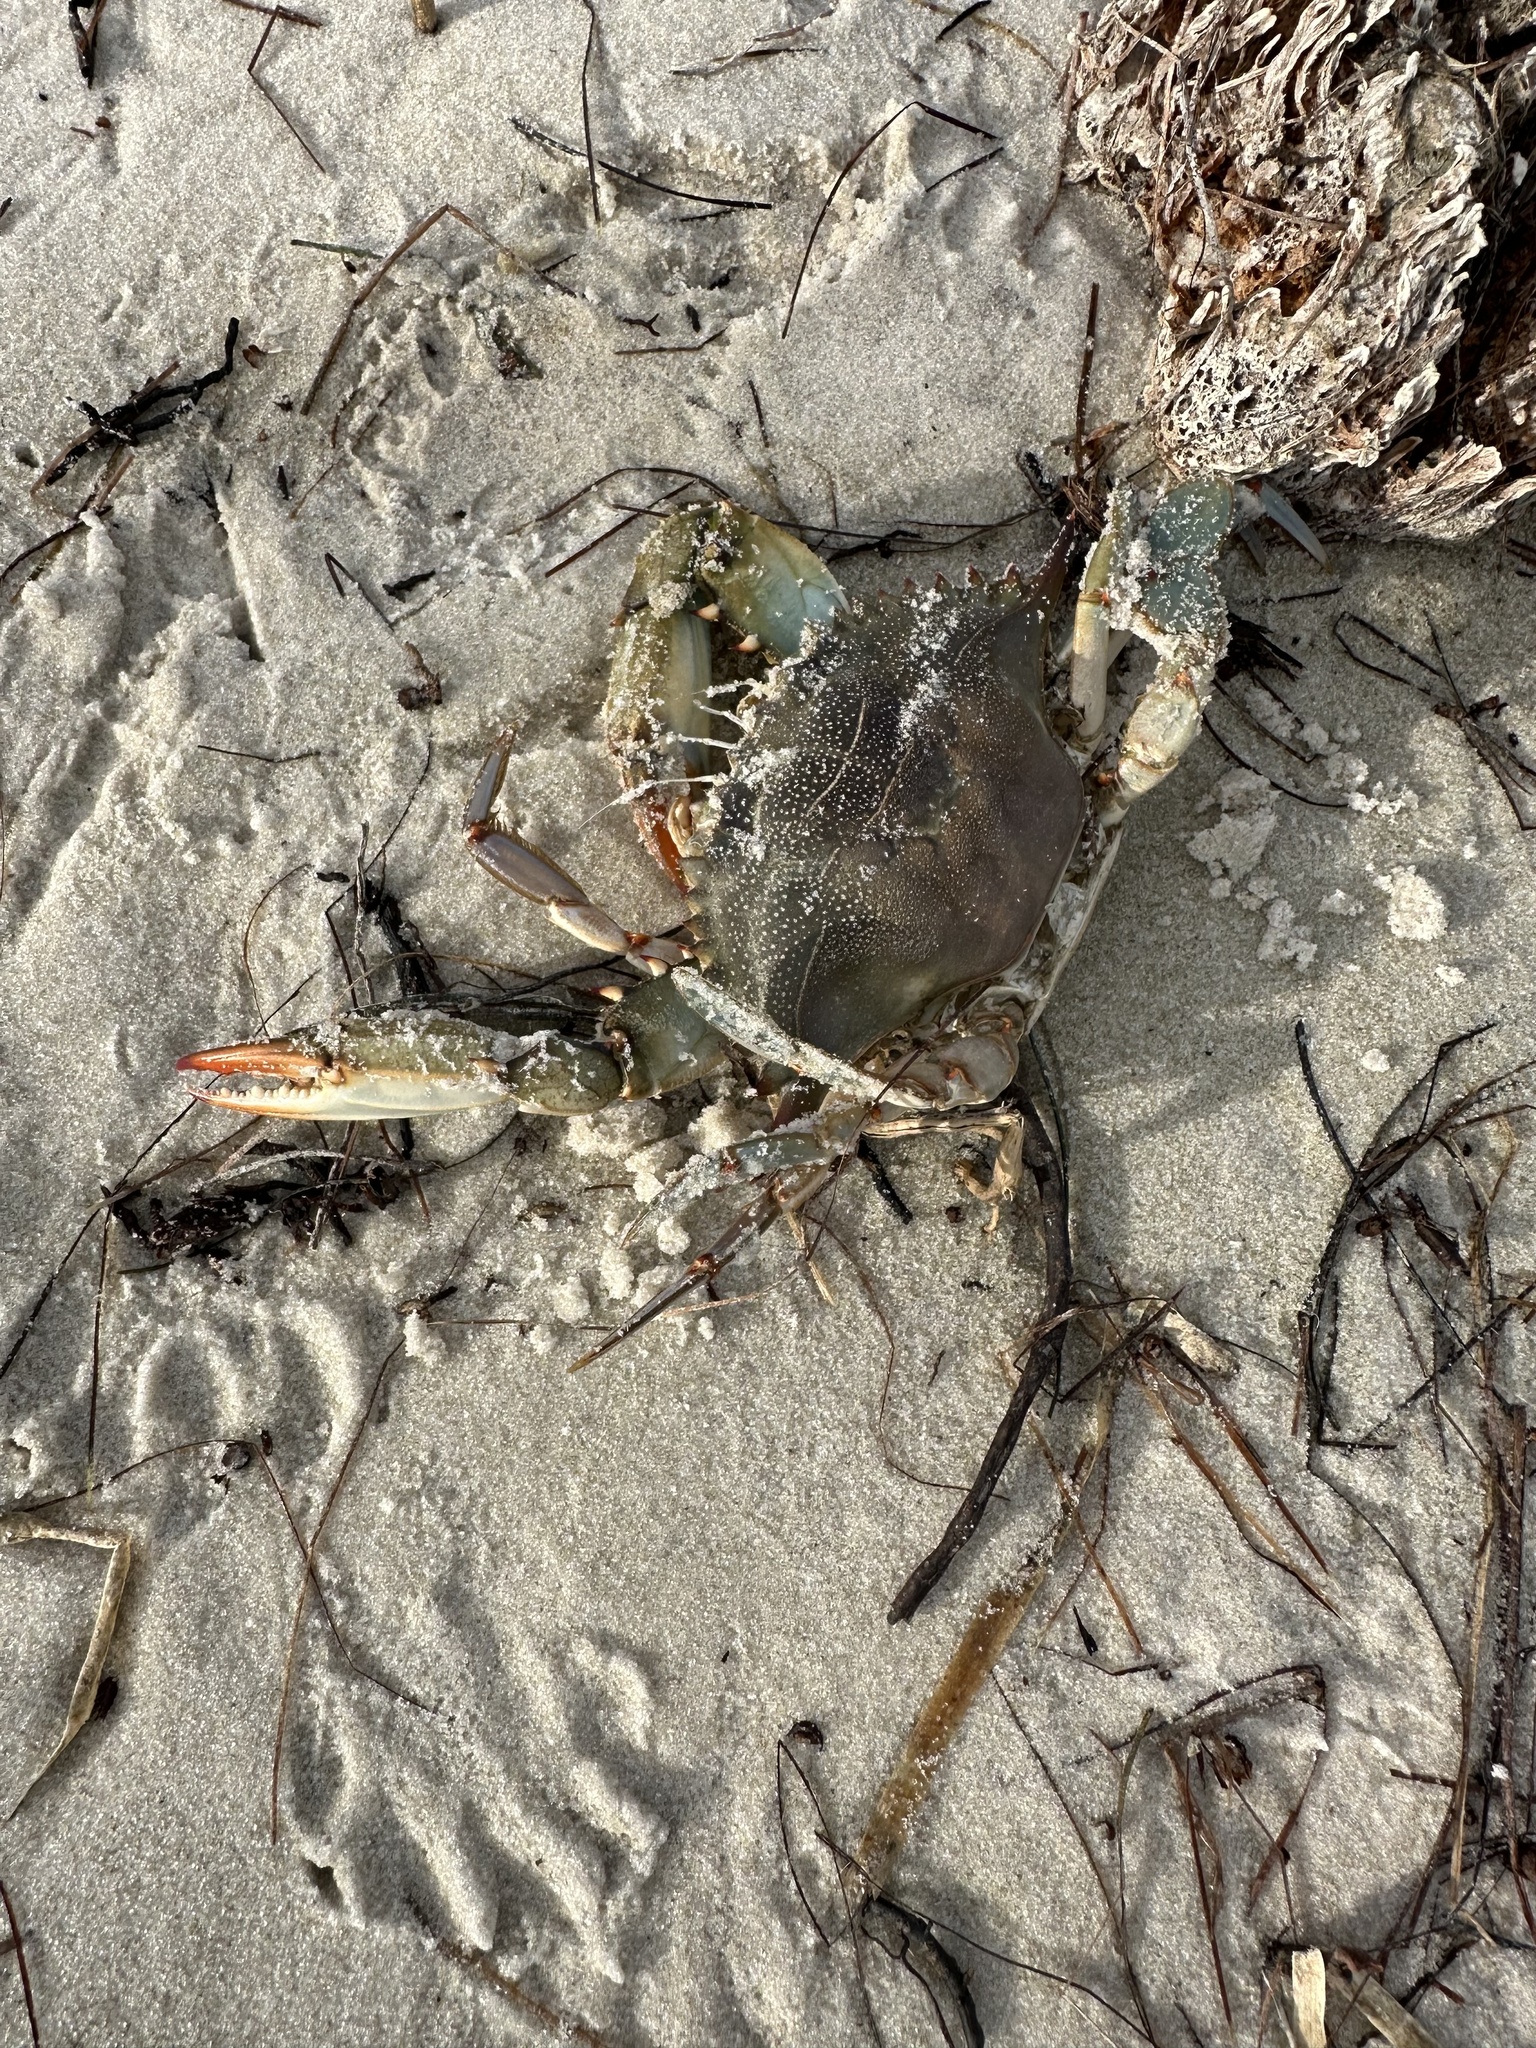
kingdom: Animalia
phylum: Arthropoda
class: Malacostraca
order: Decapoda
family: Portunidae
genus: Callinectes
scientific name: Callinectes sapidus
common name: Blue crab
